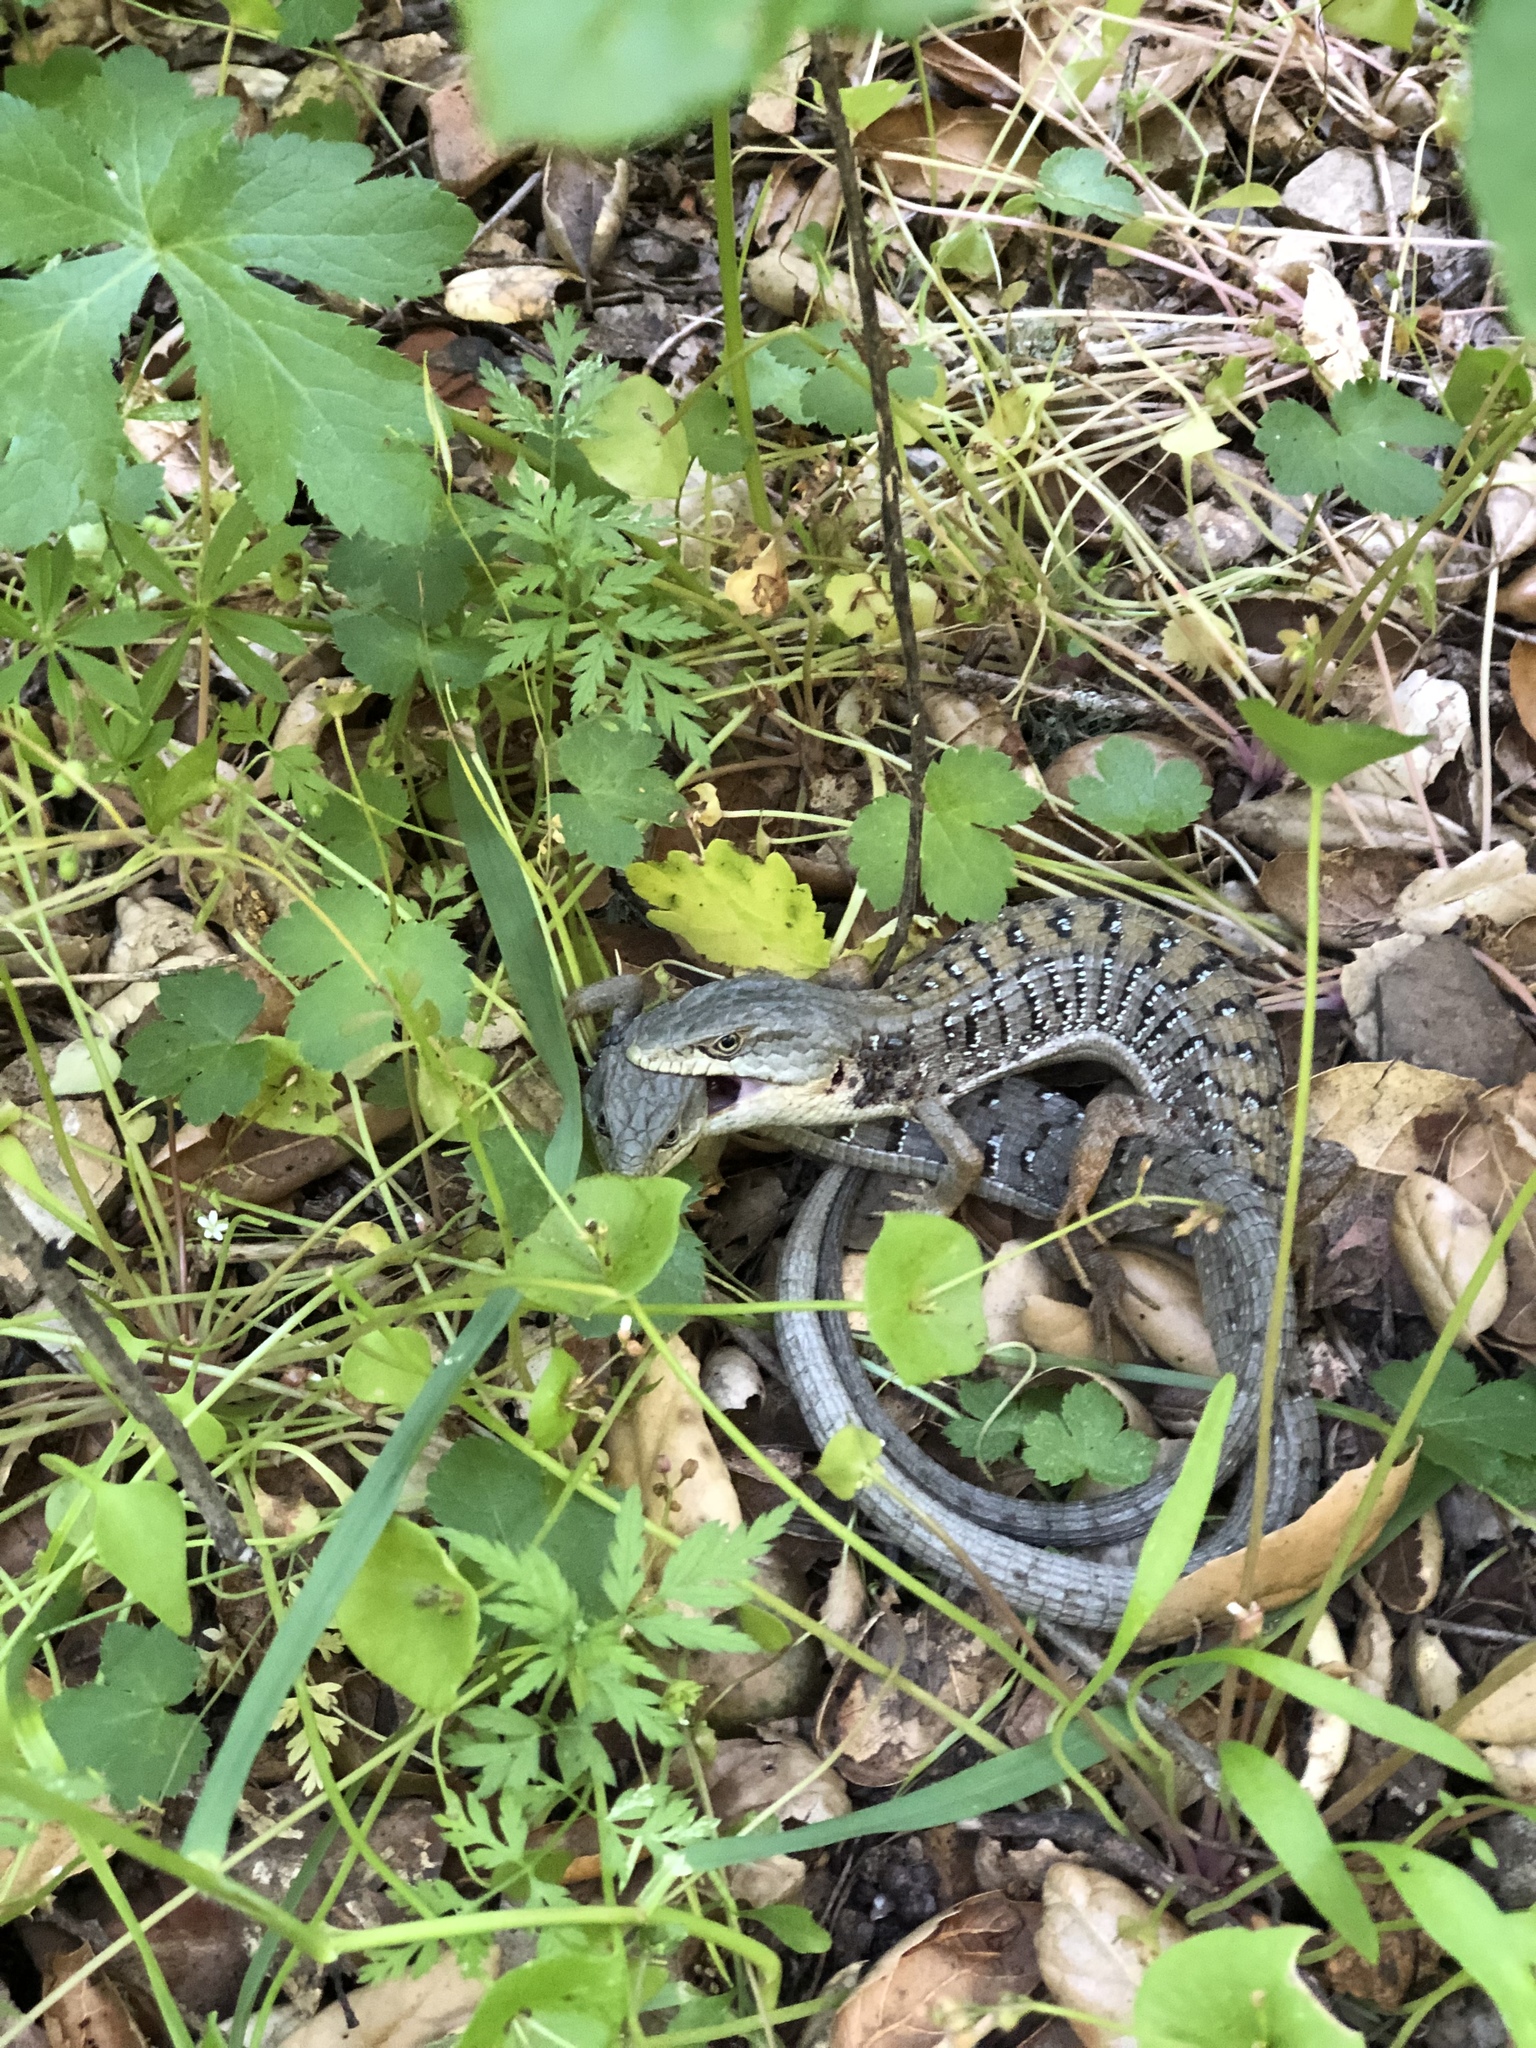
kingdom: Animalia
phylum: Chordata
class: Squamata
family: Anguidae
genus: Elgaria
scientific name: Elgaria multicarinata
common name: Southern alligator lizard
